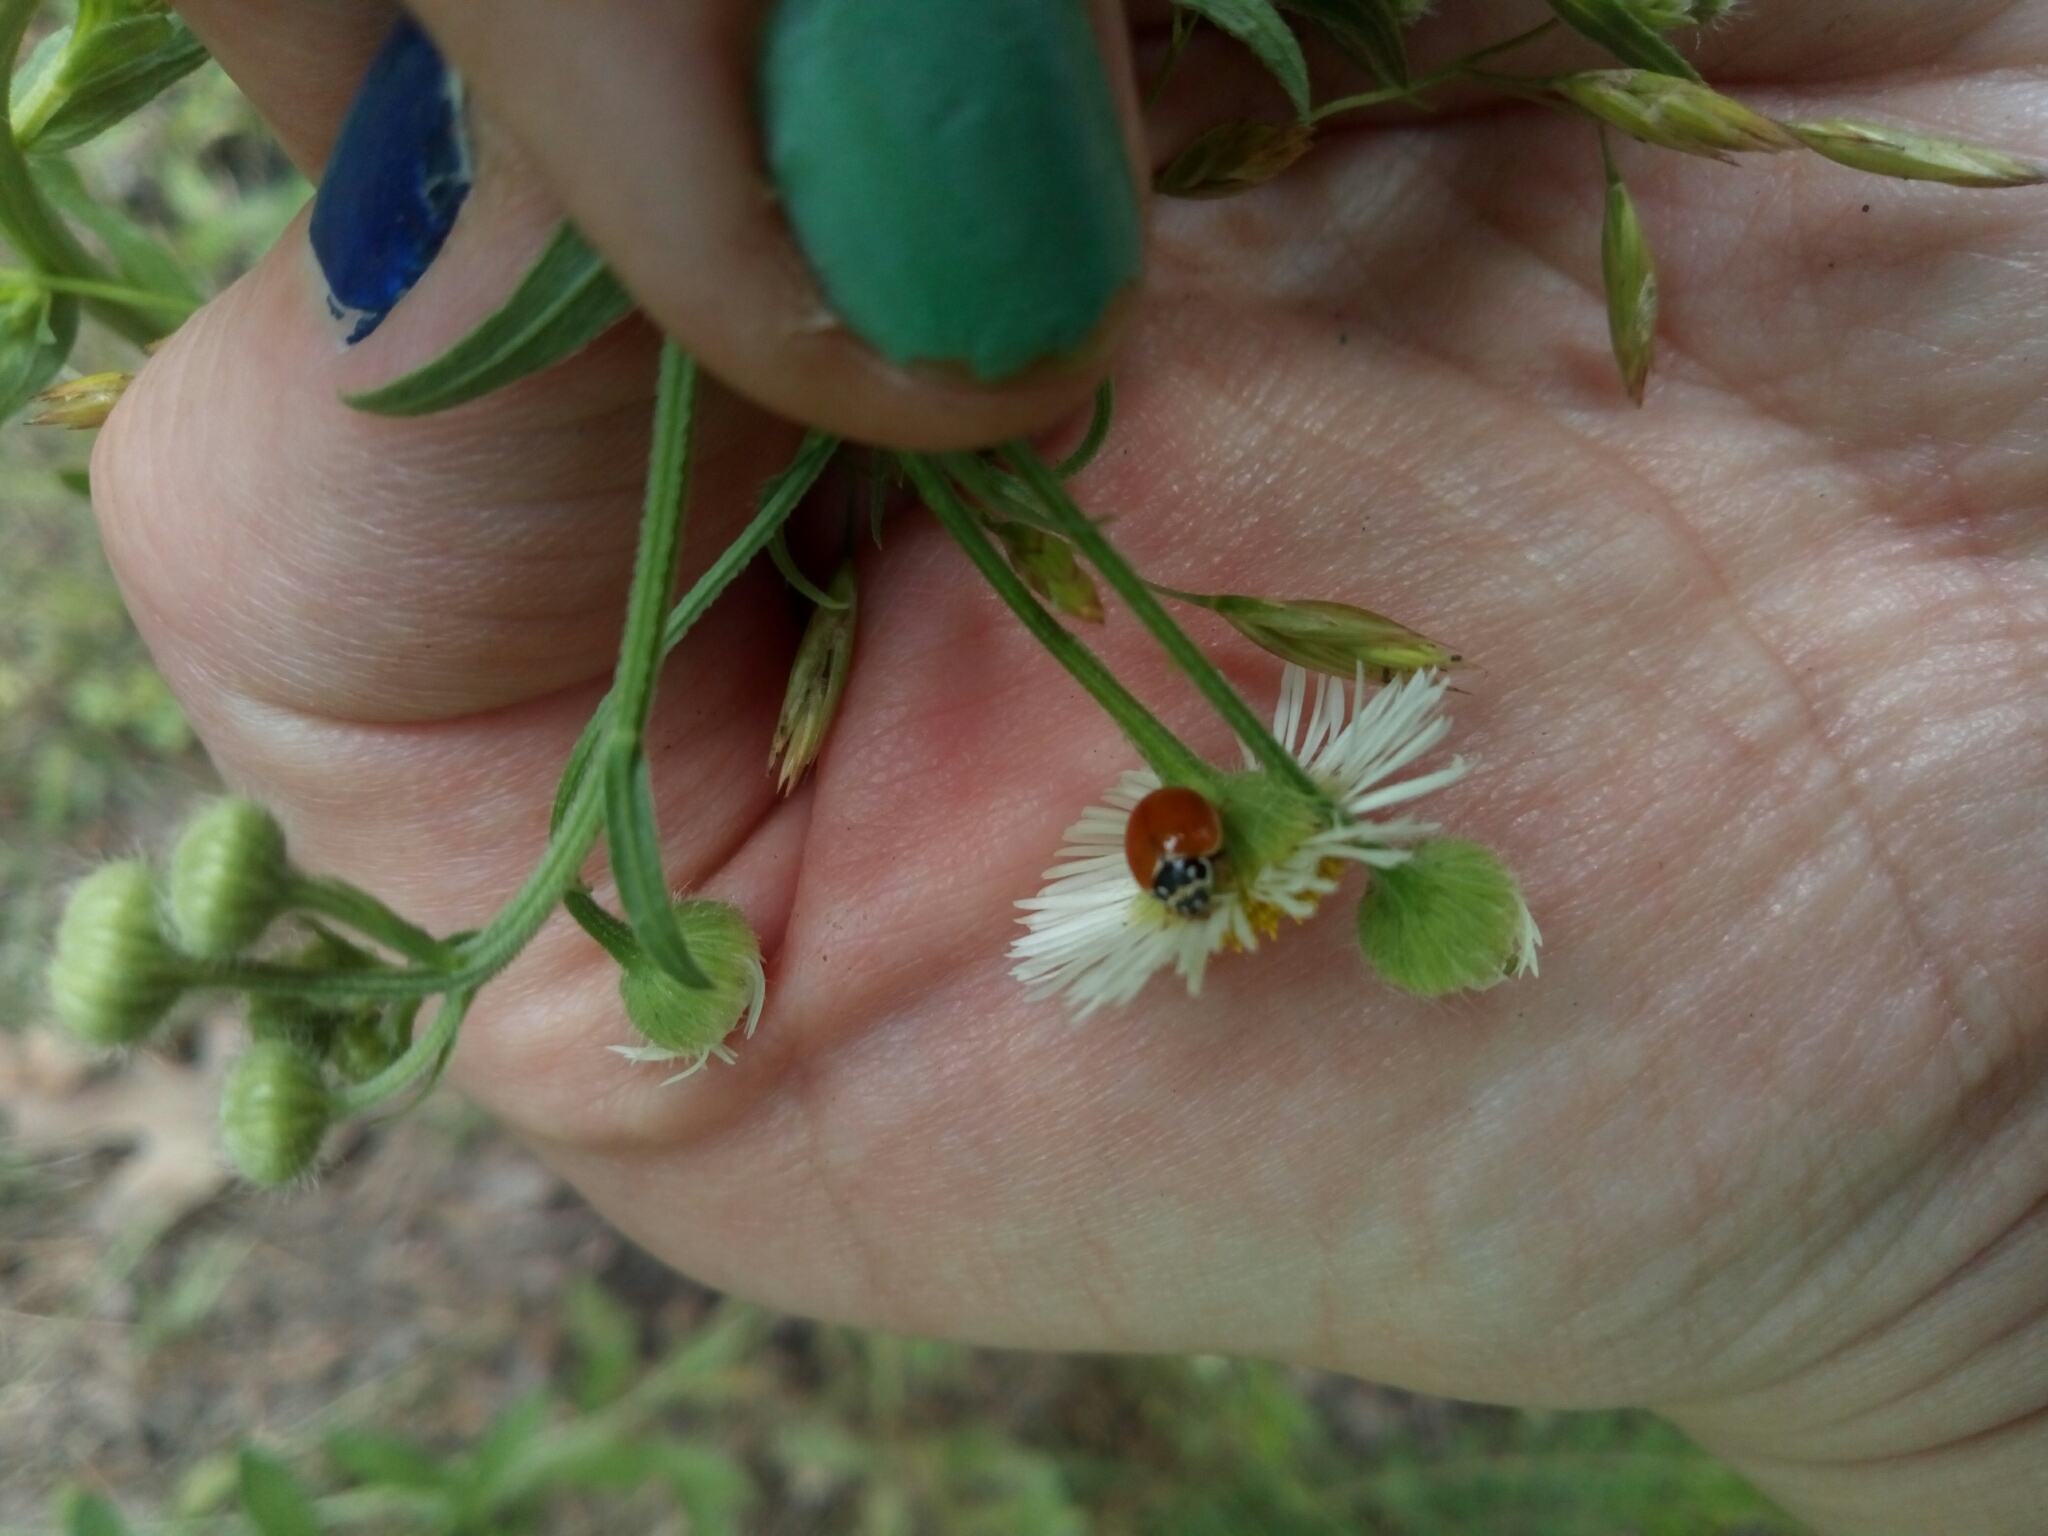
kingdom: Animalia
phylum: Arthropoda
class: Insecta
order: Coleoptera
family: Coccinellidae
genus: Cycloneda
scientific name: Cycloneda munda
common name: Polished lady beetle
